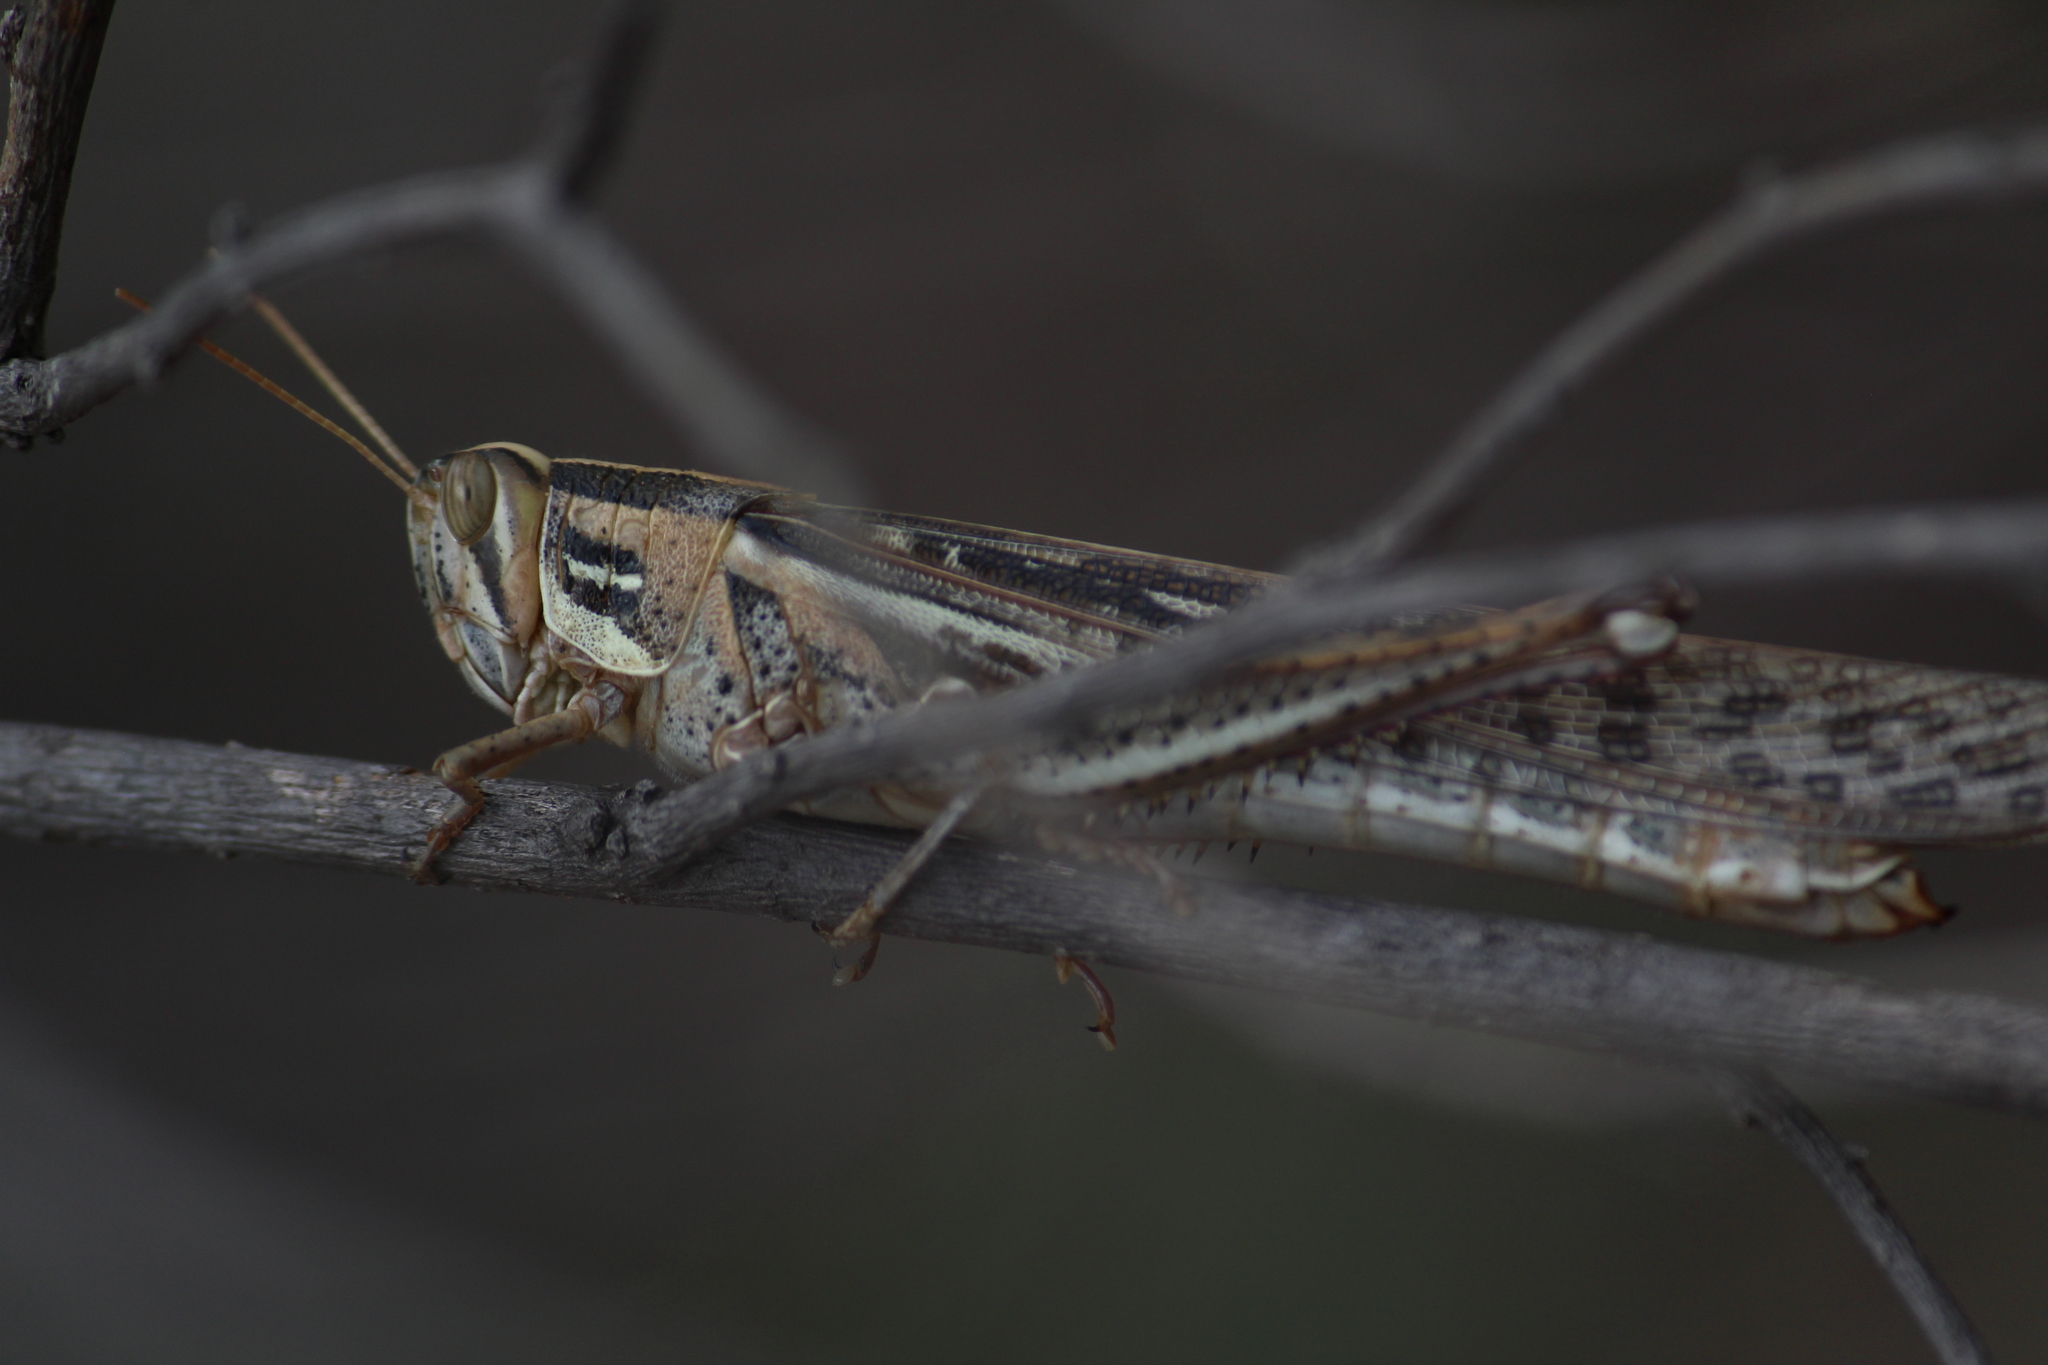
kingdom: Animalia
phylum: Arthropoda
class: Insecta
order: Orthoptera
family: Acrididae
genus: Schistocerca
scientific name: Schistocerca cancellata
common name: South american locust
